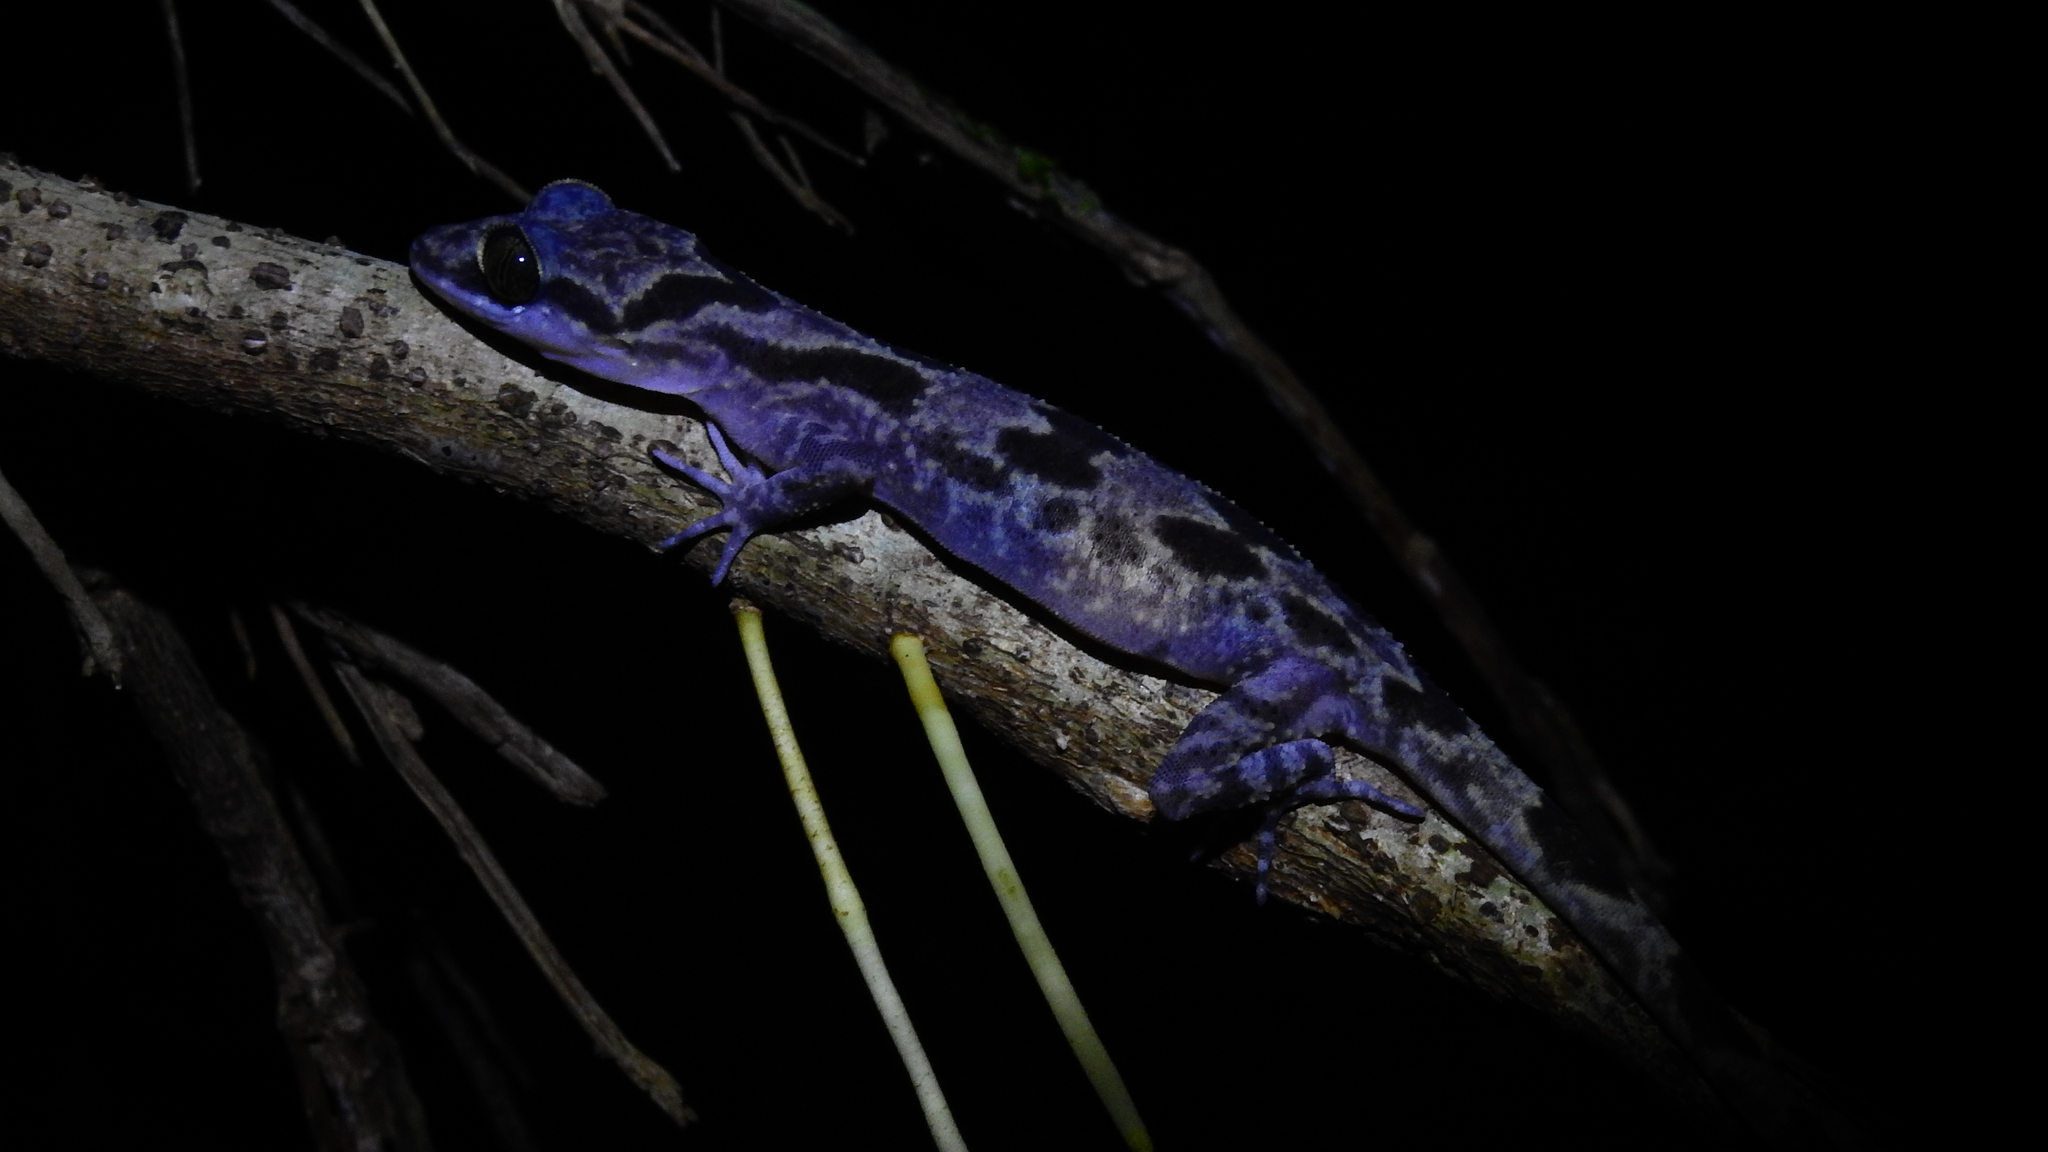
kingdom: Animalia
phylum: Chordata
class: Squamata
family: Gekkonidae
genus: Cyrtodactylus
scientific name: Cyrtodactylus jellesmae
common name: Kabaena bow-fingered gecko
